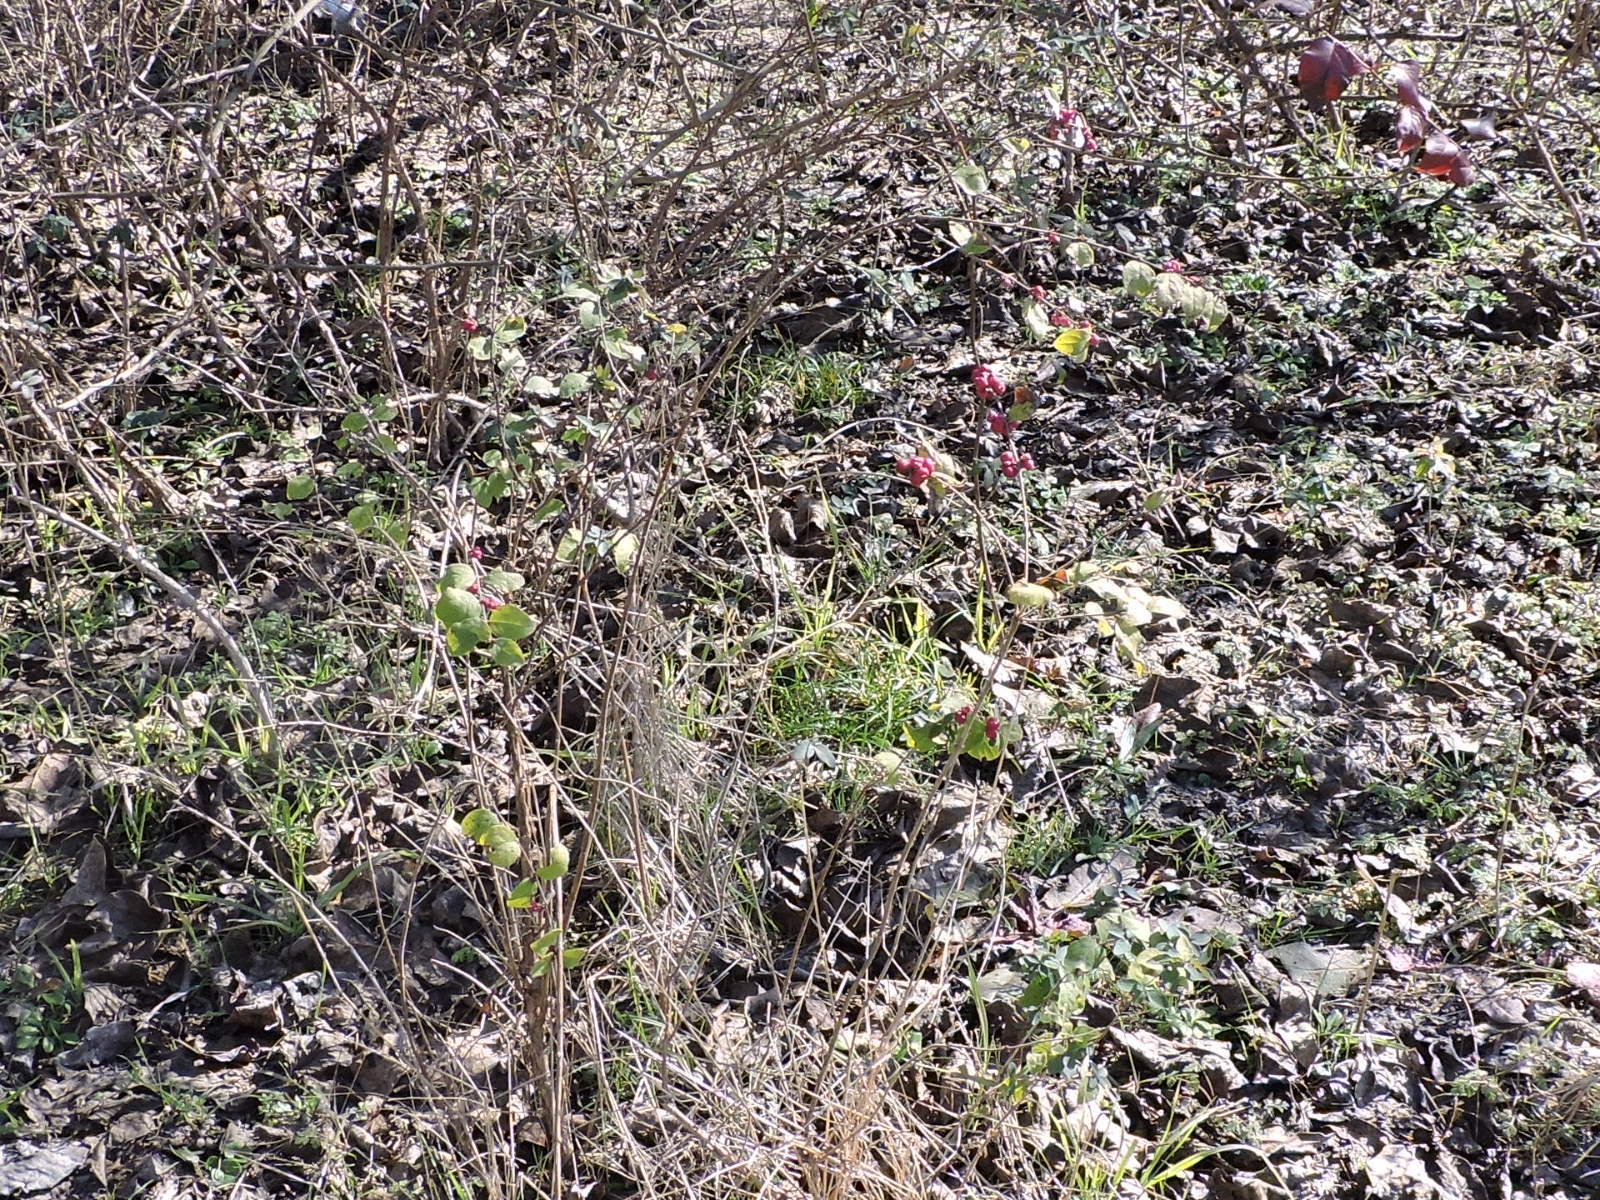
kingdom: Plantae
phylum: Tracheophyta
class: Magnoliopsida
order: Dipsacales
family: Caprifoliaceae
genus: Symphoricarpos
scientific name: Symphoricarpos orbiculatus
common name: Coralberry
